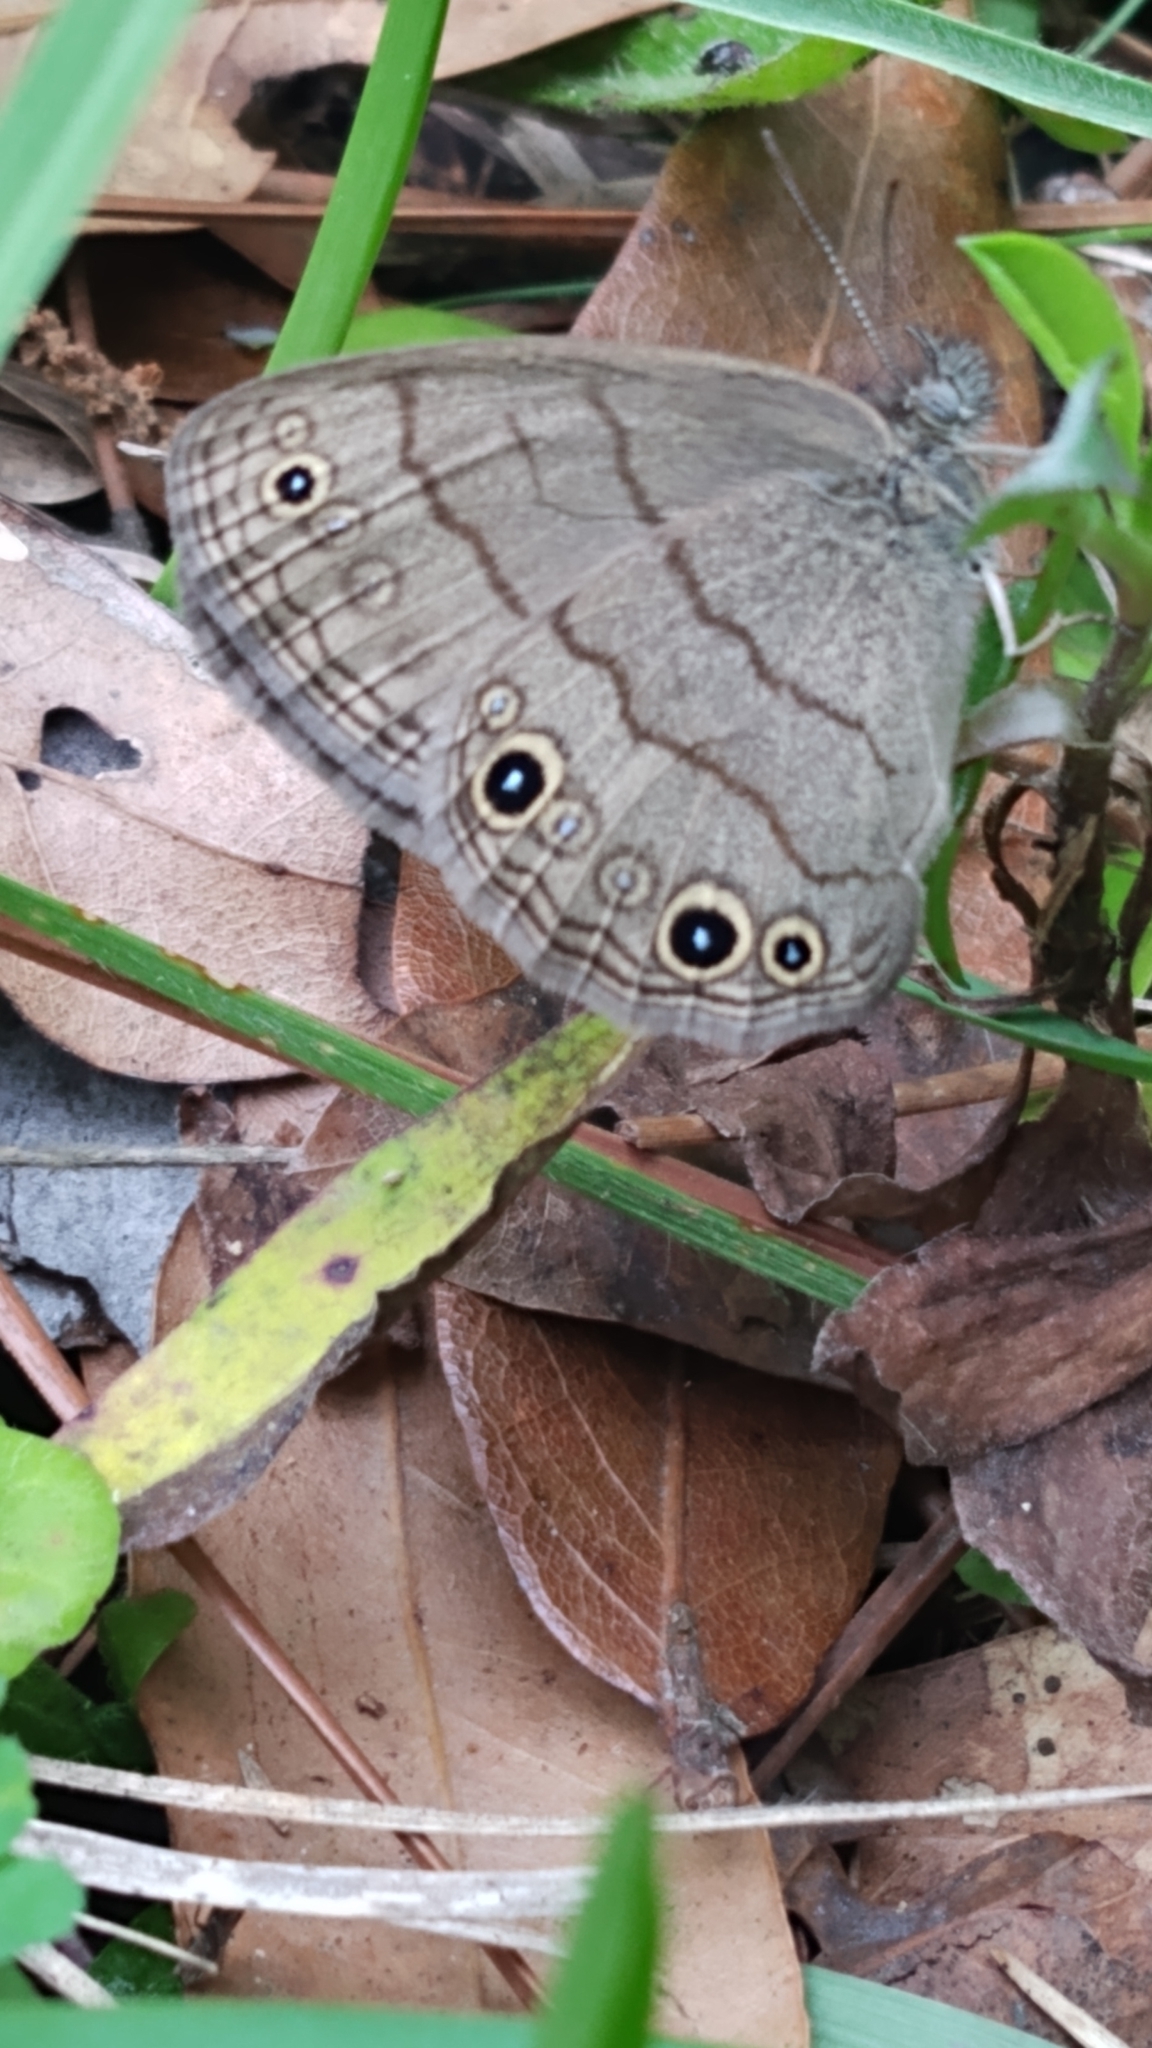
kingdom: Animalia
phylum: Arthropoda
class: Insecta
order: Lepidoptera
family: Nymphalidae
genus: Hermeuptychia
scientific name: Hermeuptychia hermes
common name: Hermes satyr
